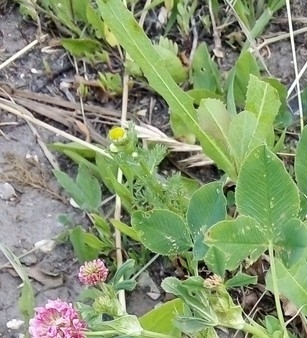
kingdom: Plantae
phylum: Tracheophyta
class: Magnoliopsida
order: Asterales
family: Asteraceae
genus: Matricaria
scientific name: Matricaria discoidea
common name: Disc mayweed
